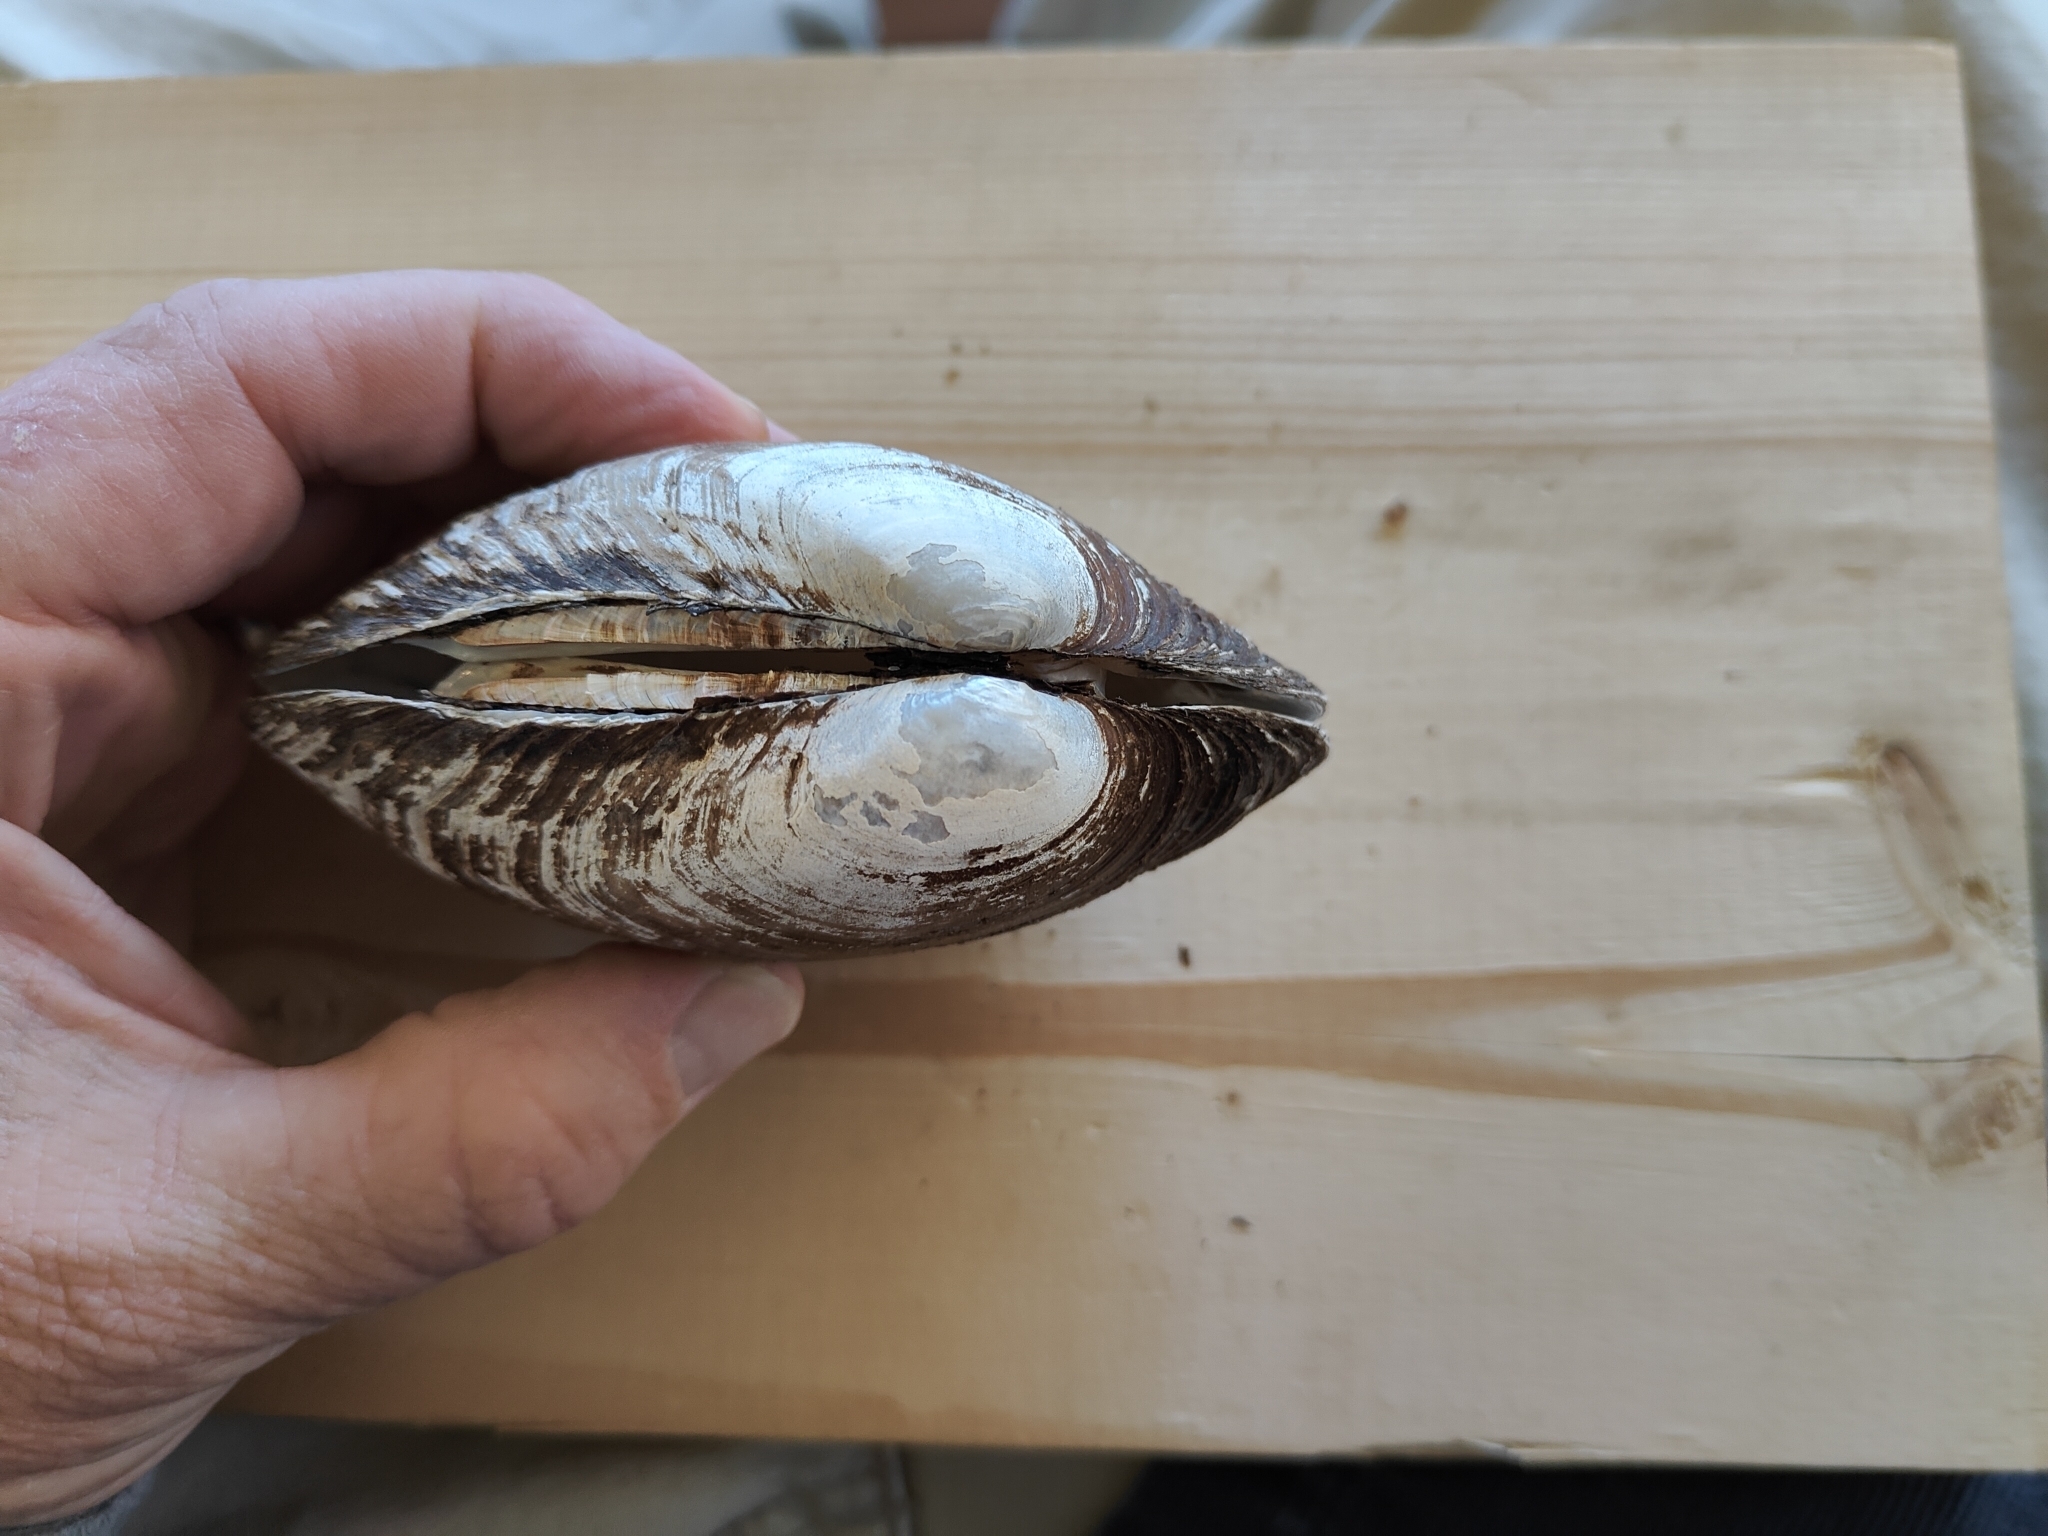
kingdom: Animalia
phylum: Mollusca
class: Bivalvia
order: Unionida
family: Unionidae
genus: Lampsilis
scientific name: Lampsilis cardium
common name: Plain pocketbook
